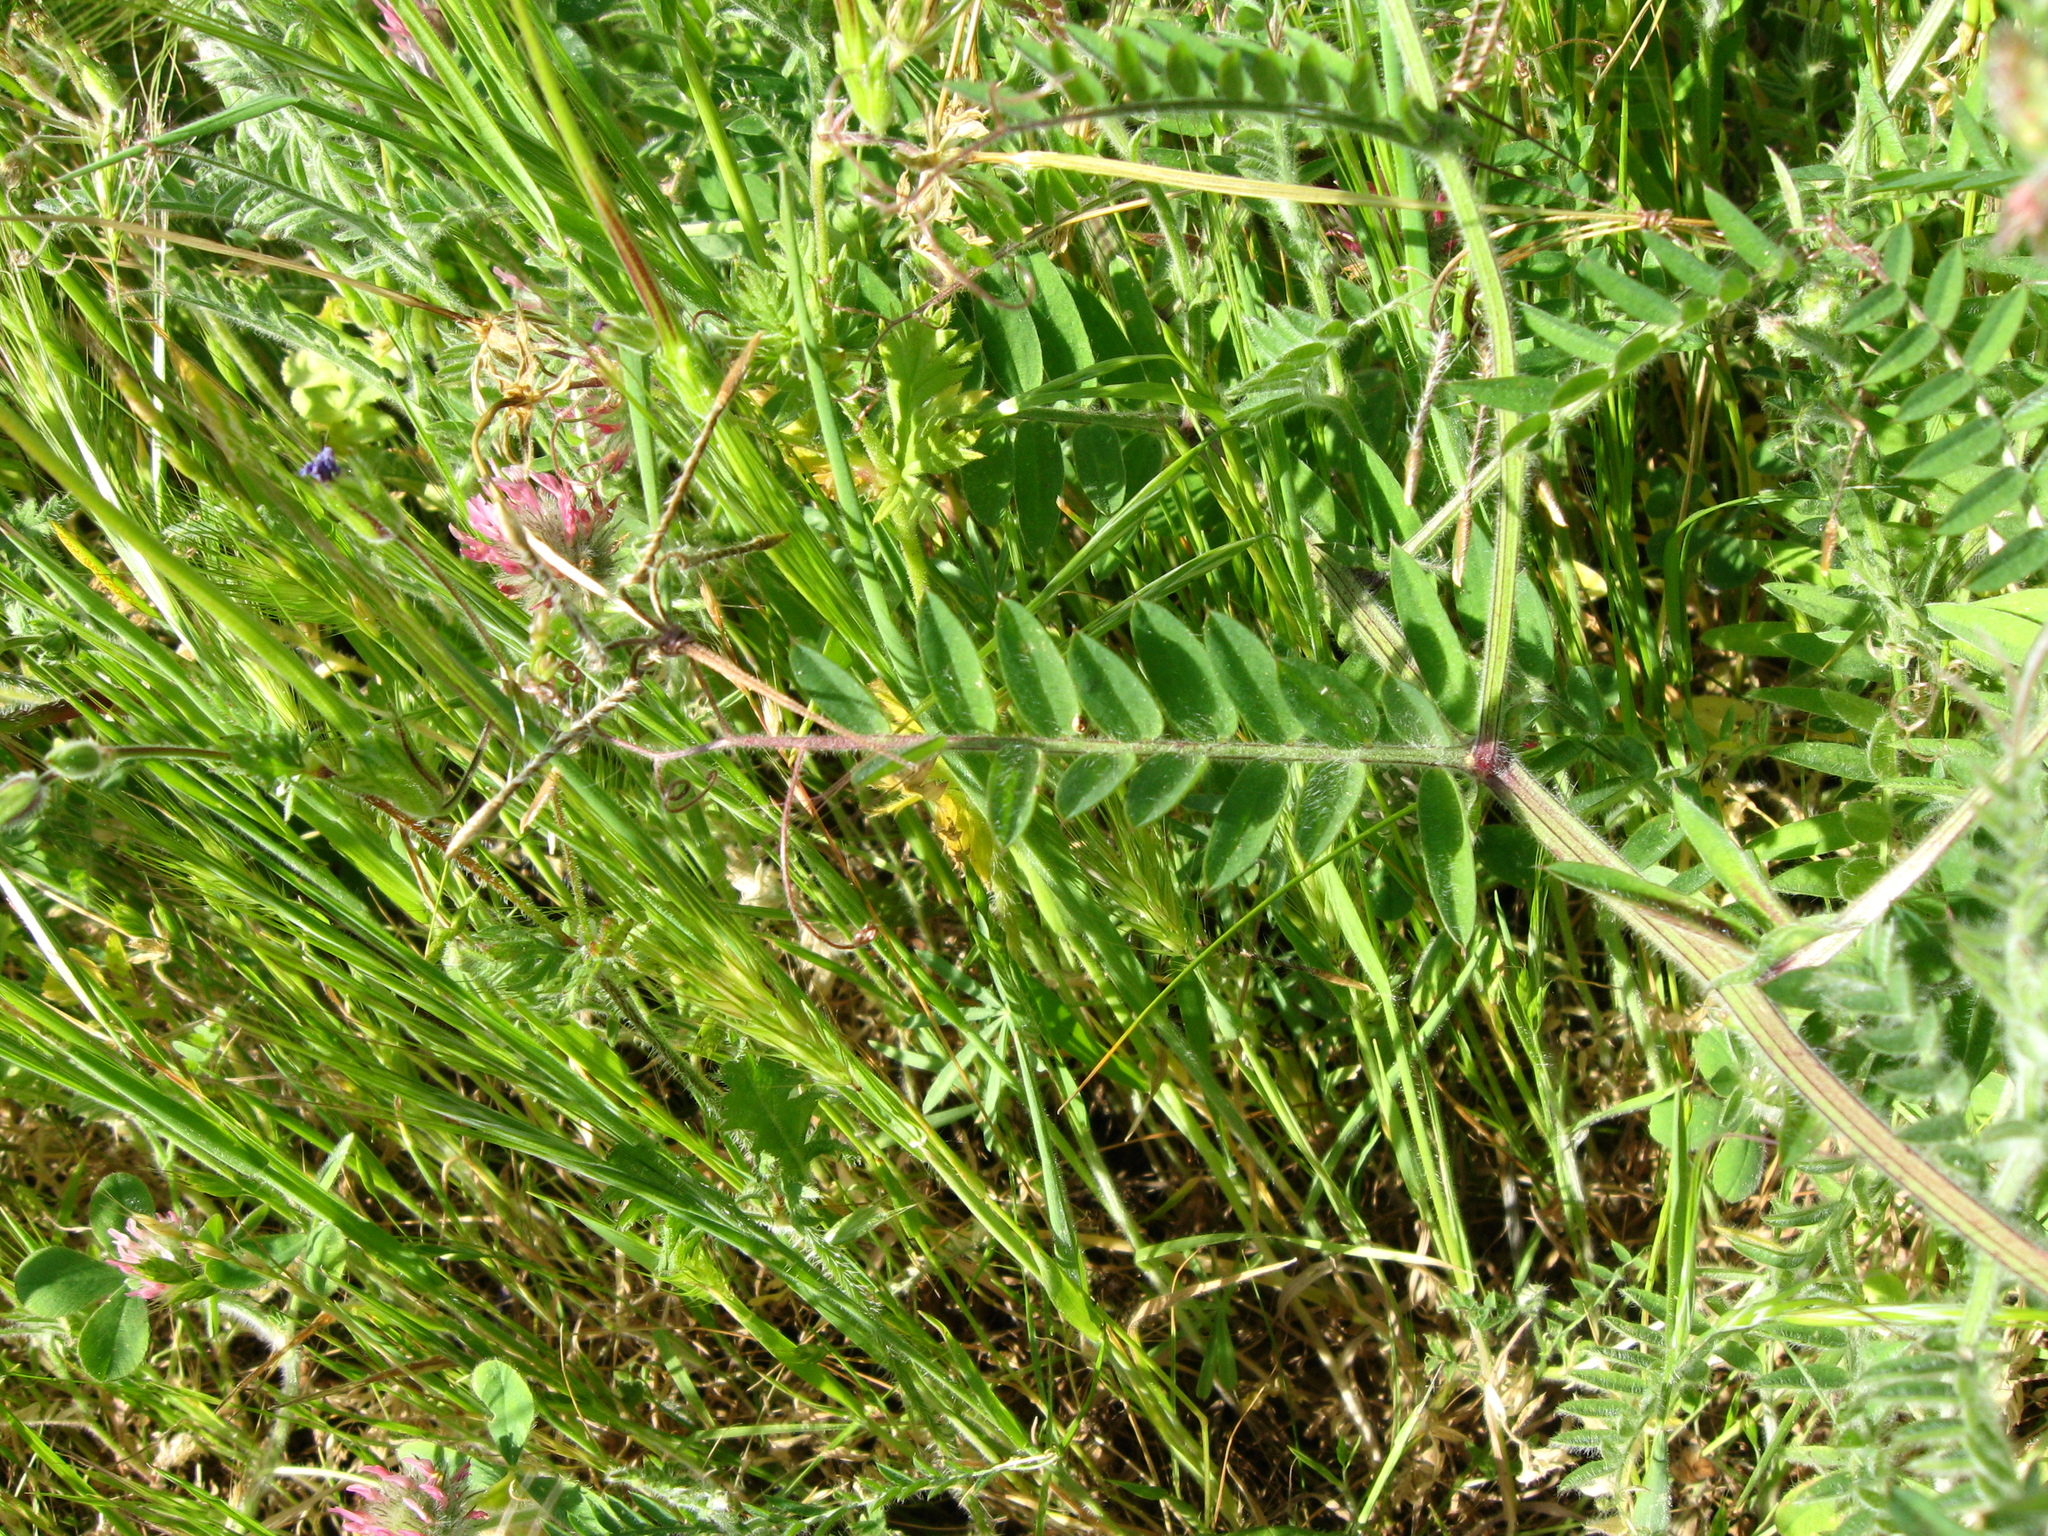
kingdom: Plantae
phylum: Tracheophyta
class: Magnoliopsida
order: Fabales
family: Fabaceae
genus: Vicia
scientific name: Vicia villosa
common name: Fodder vetch
